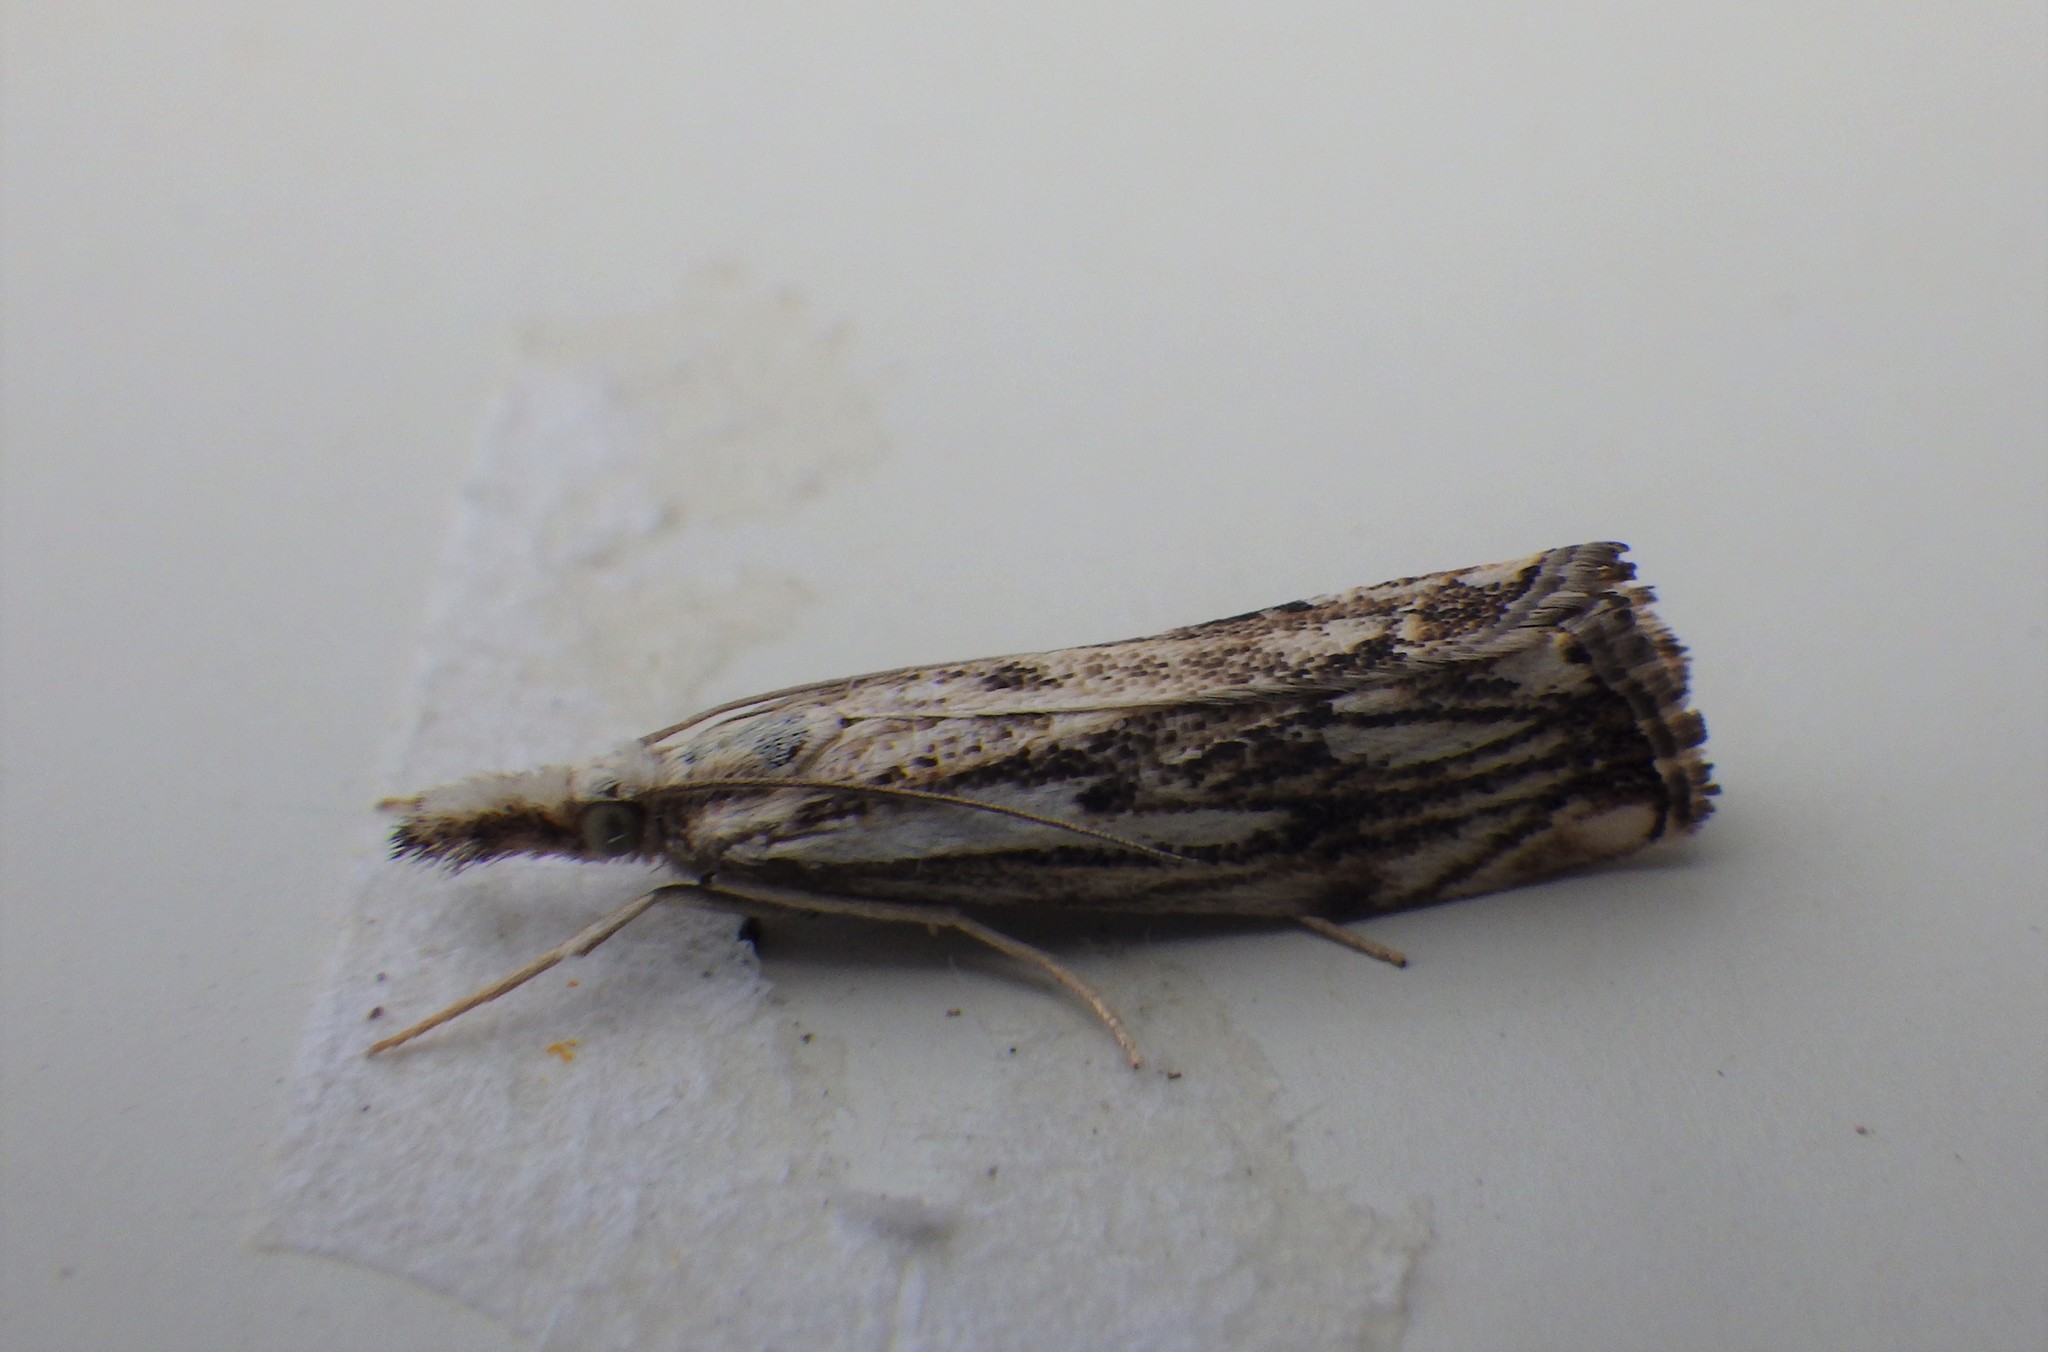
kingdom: Animalia
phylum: Arthropoda
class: Insecta
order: Lepidoptera
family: Crambidae
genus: Catoptria
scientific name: Catoptria falsella
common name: Chequered grass-veneer
